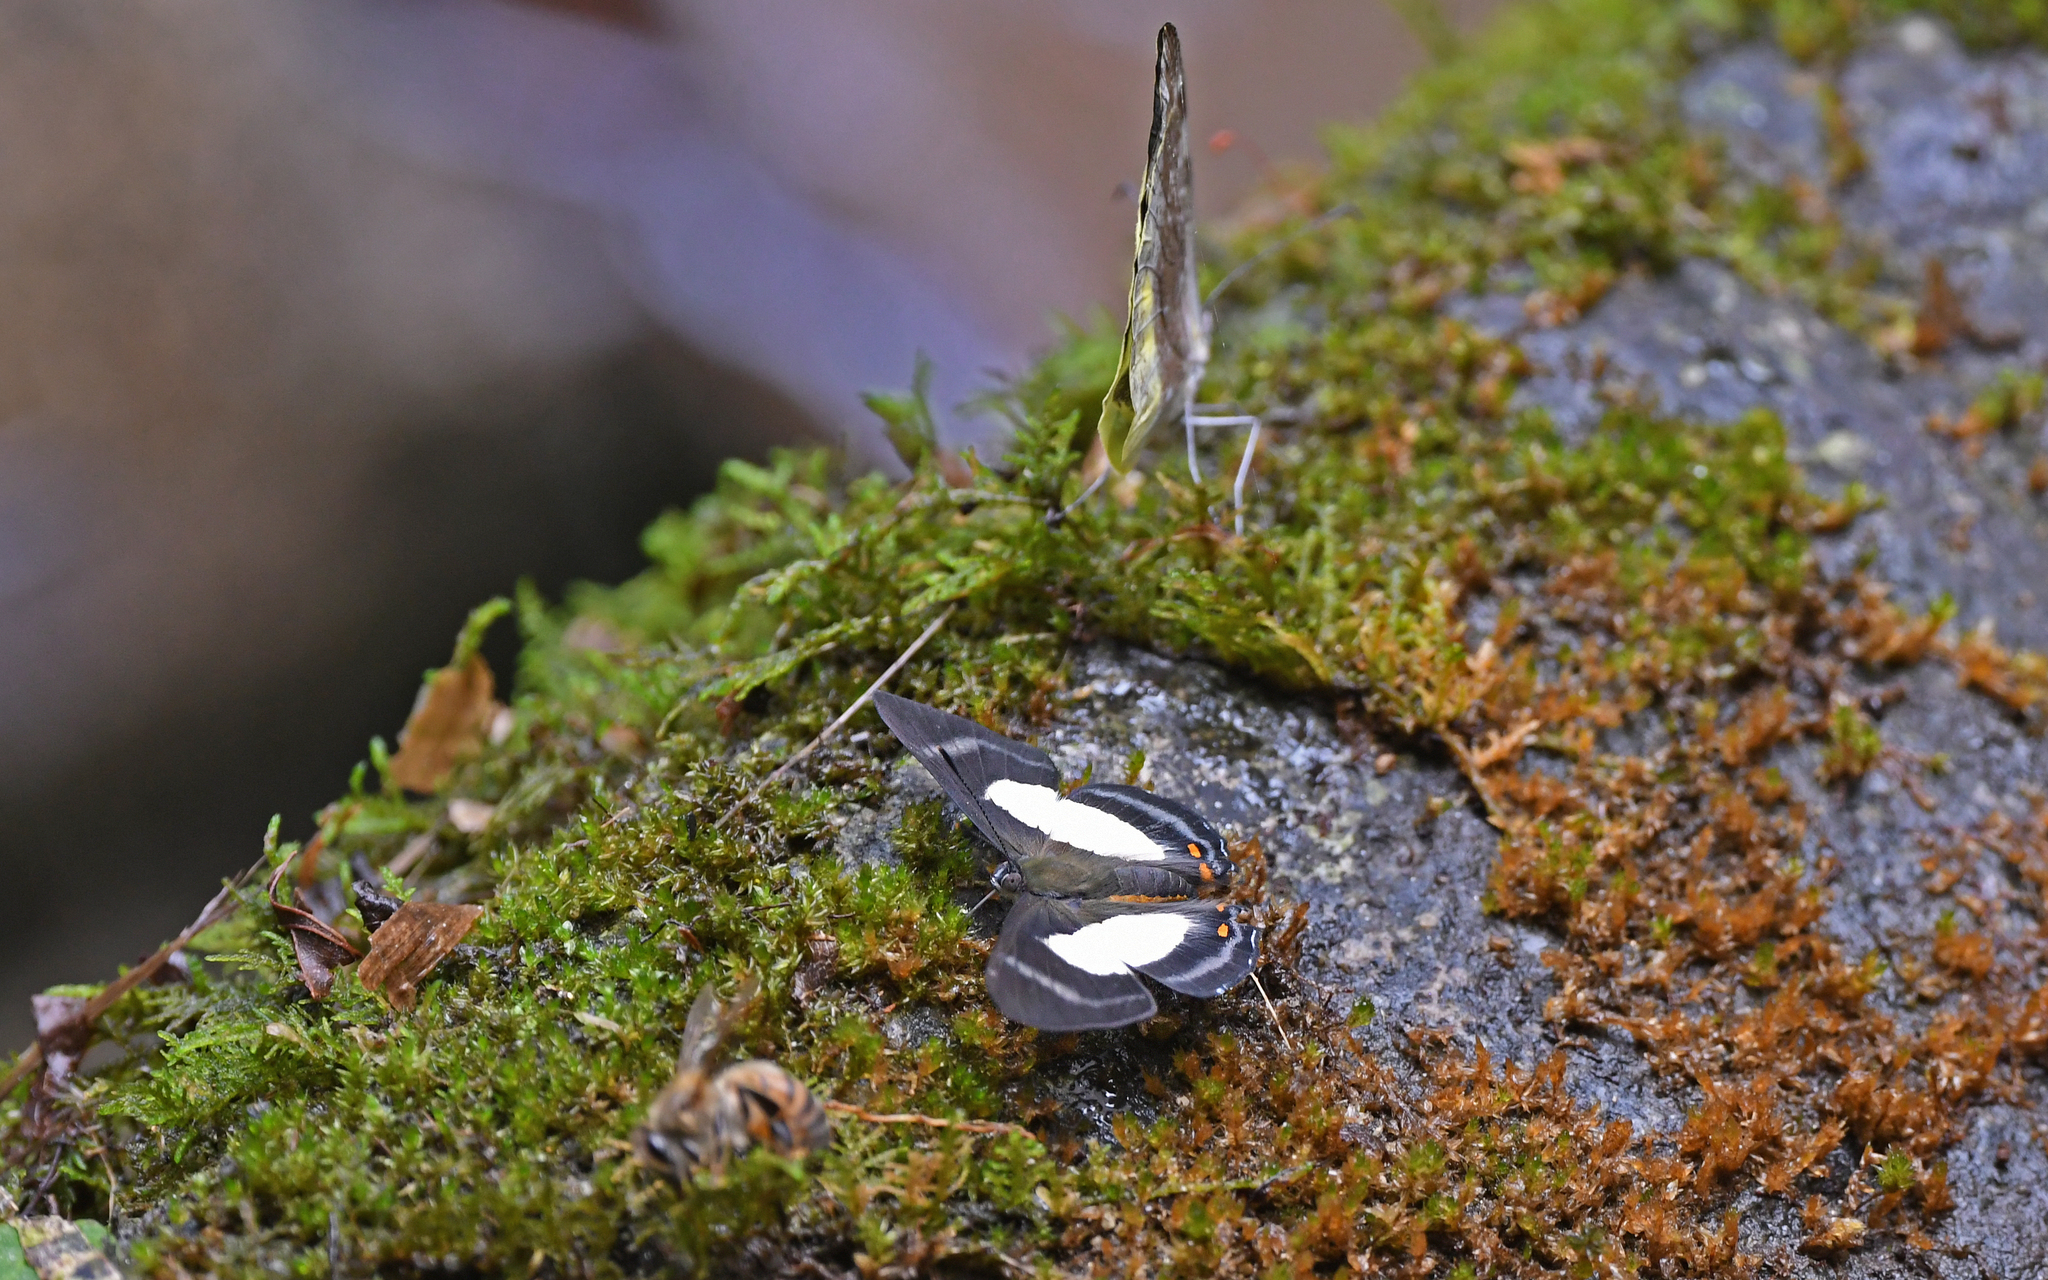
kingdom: Animalia
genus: Siseme
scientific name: Siseme alectryo
